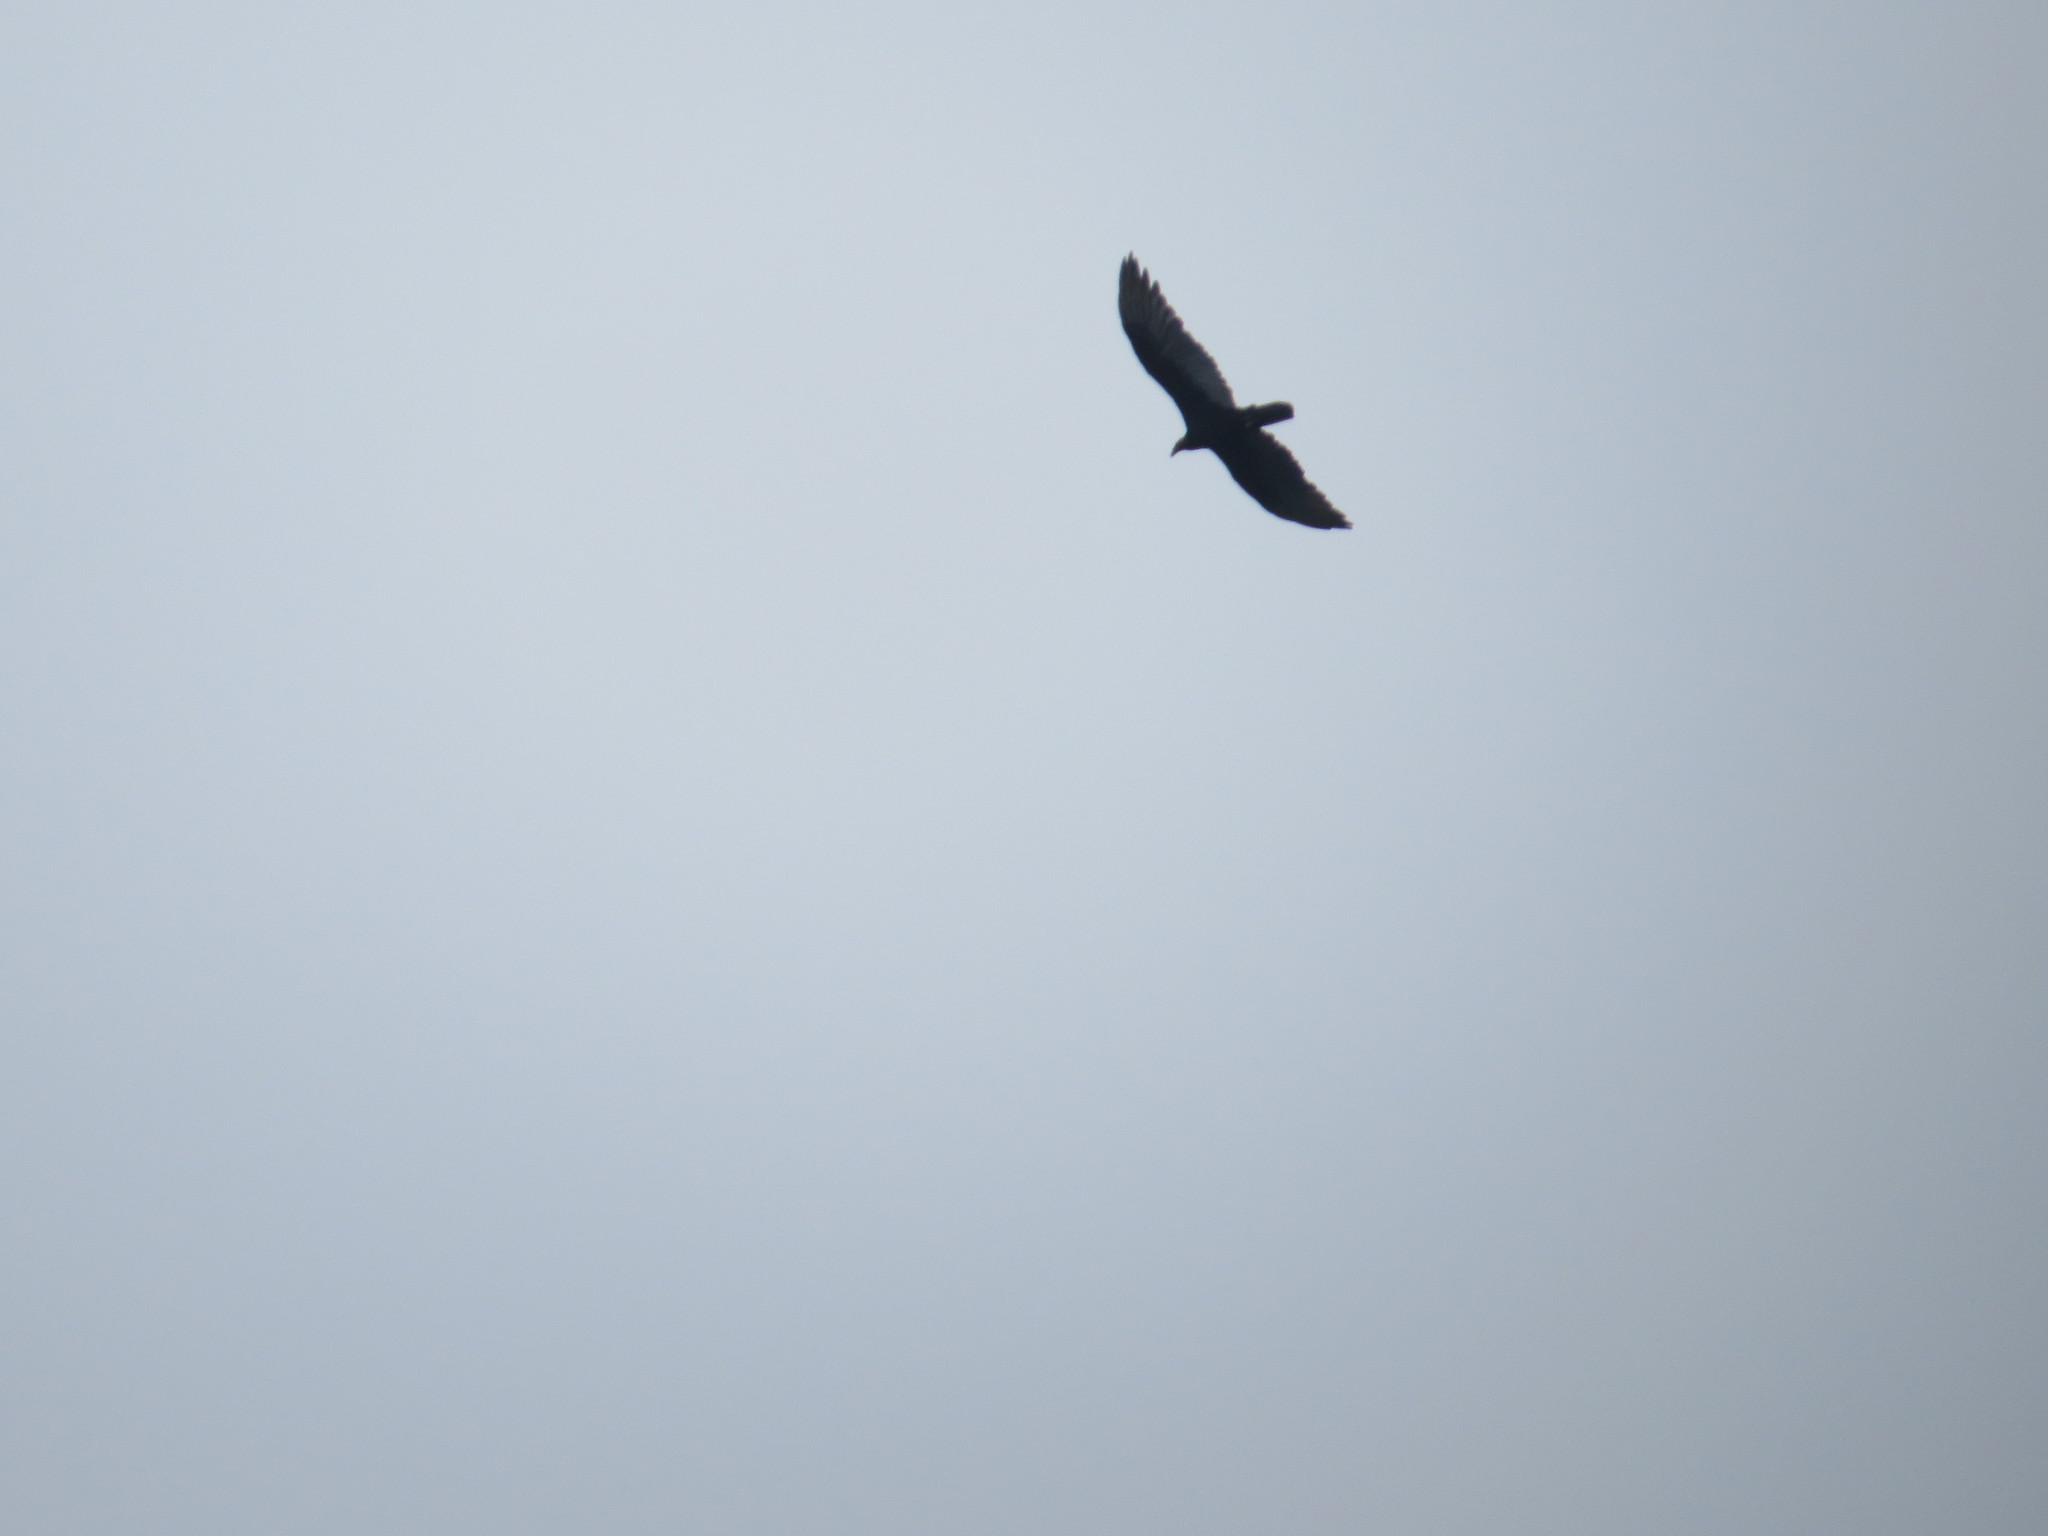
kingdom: Animalia
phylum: Chordata
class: Aves
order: Accipitriformes
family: Cathartidae
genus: Cathartes
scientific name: Cathartes aura
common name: Turkey vulture
